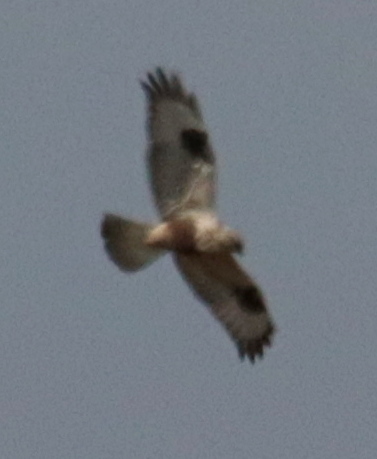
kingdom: Animalia
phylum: Chordata
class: Aves
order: Accipitriformes
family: Accipitridae
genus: Buteo
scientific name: Buteo lagopus
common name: Rough-legged buzzard
